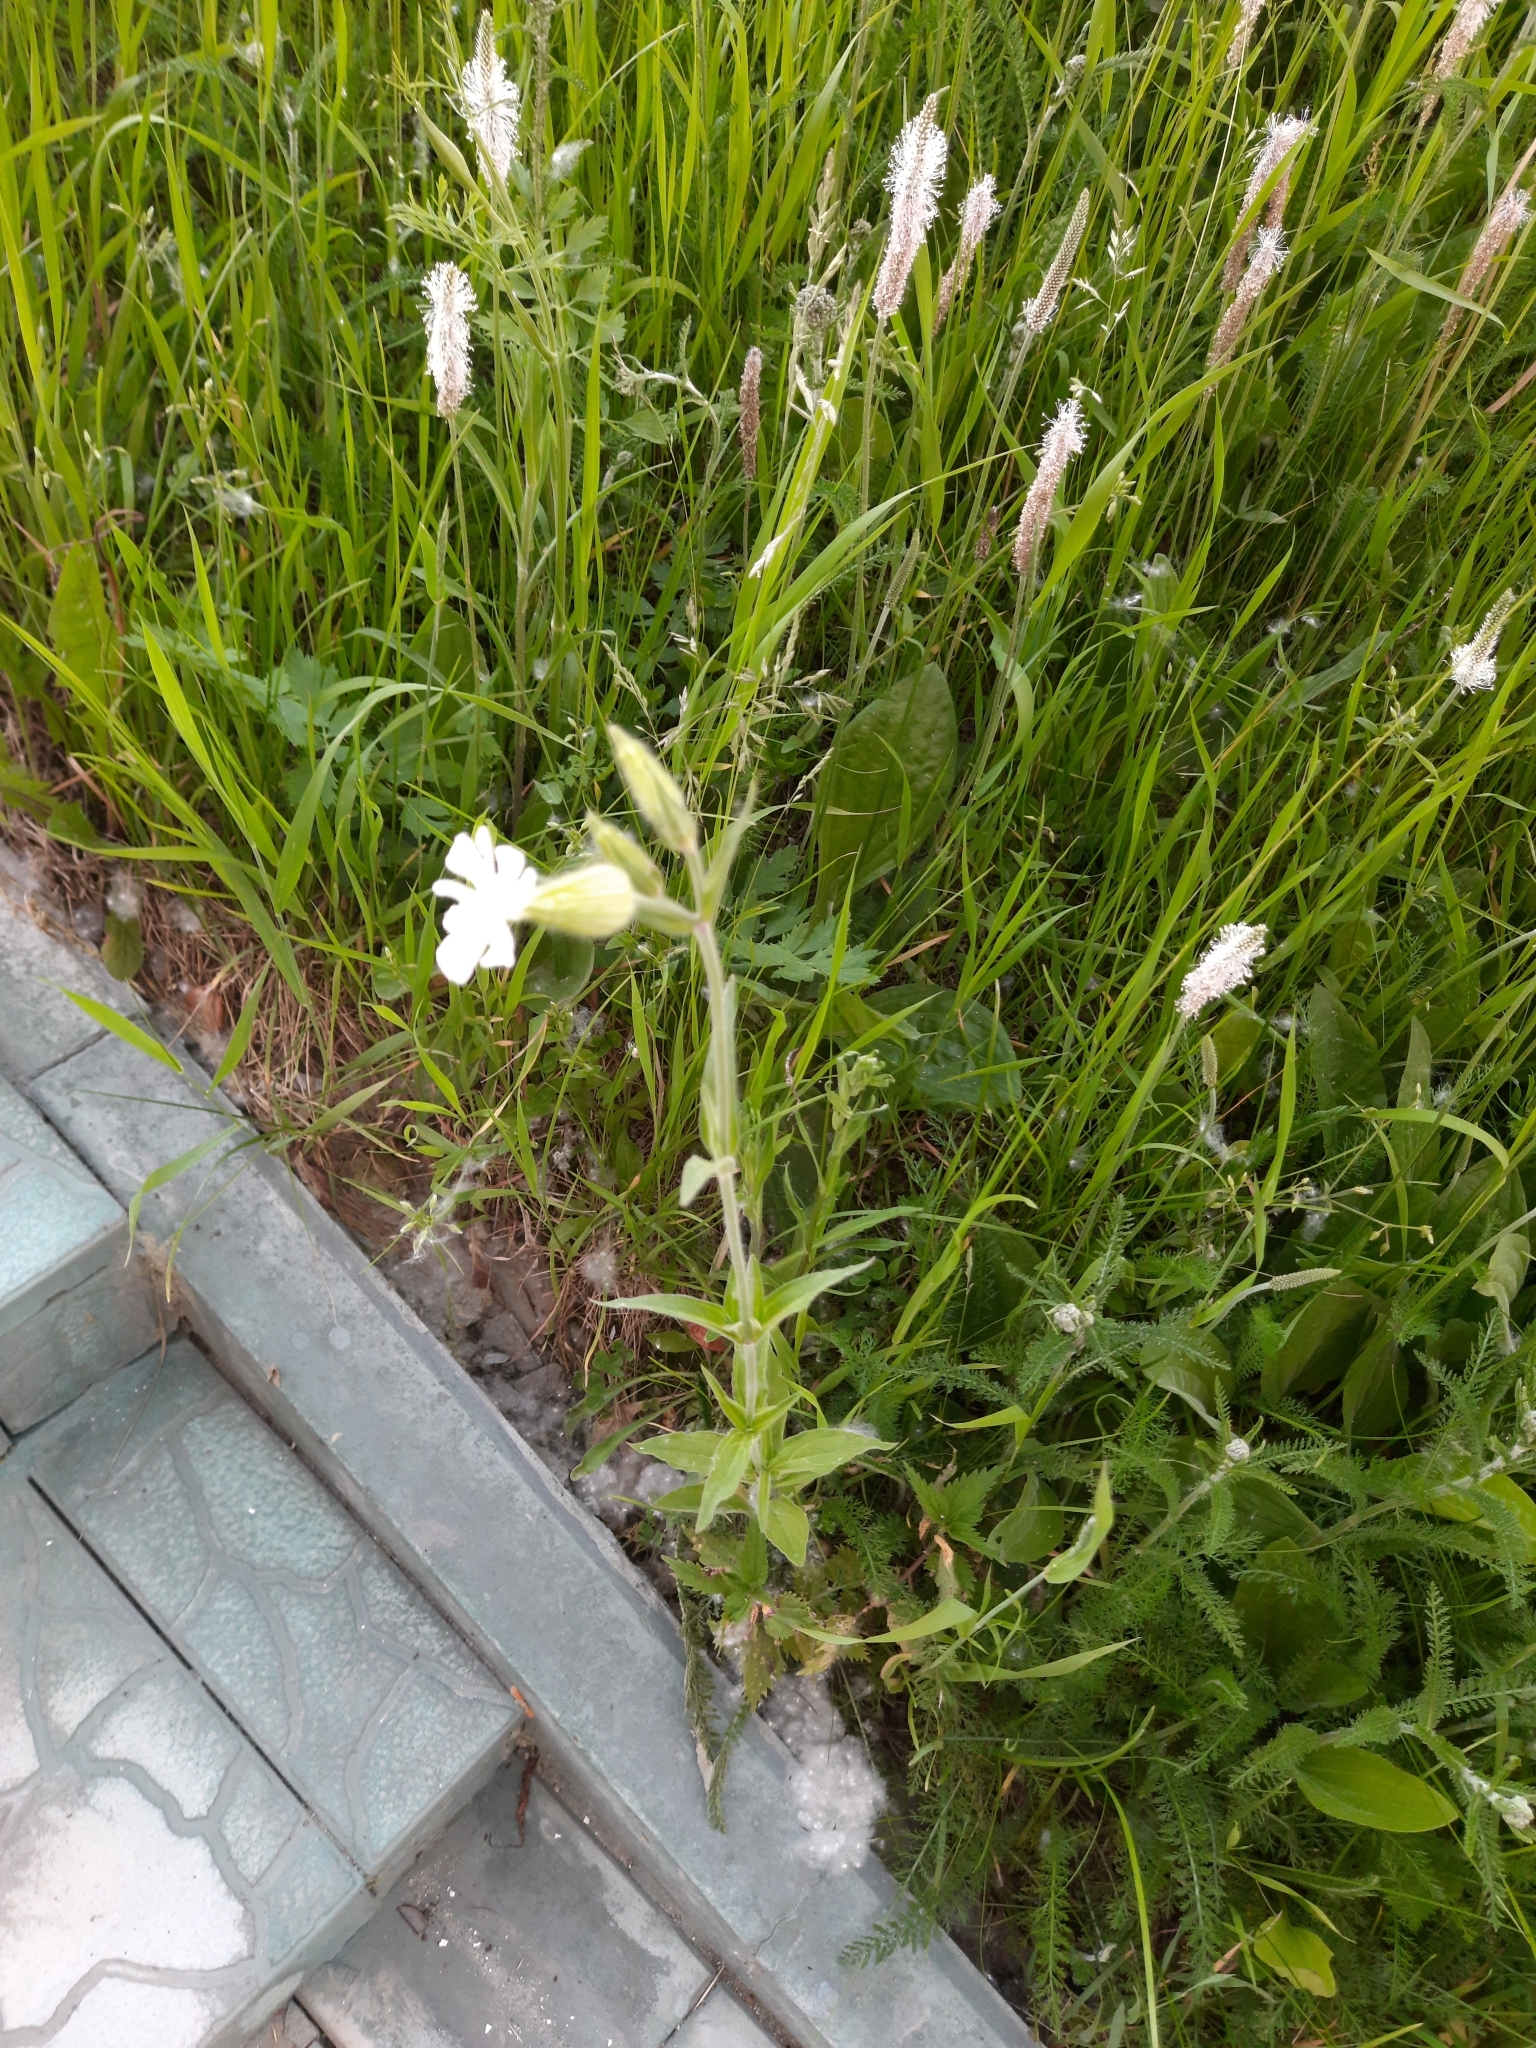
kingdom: Plantae
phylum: Tracheophyta
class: Magnoliopsida
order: Caryophyllales
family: Caryophyllaceae
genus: Silene
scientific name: Silene latifolia
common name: White campion
